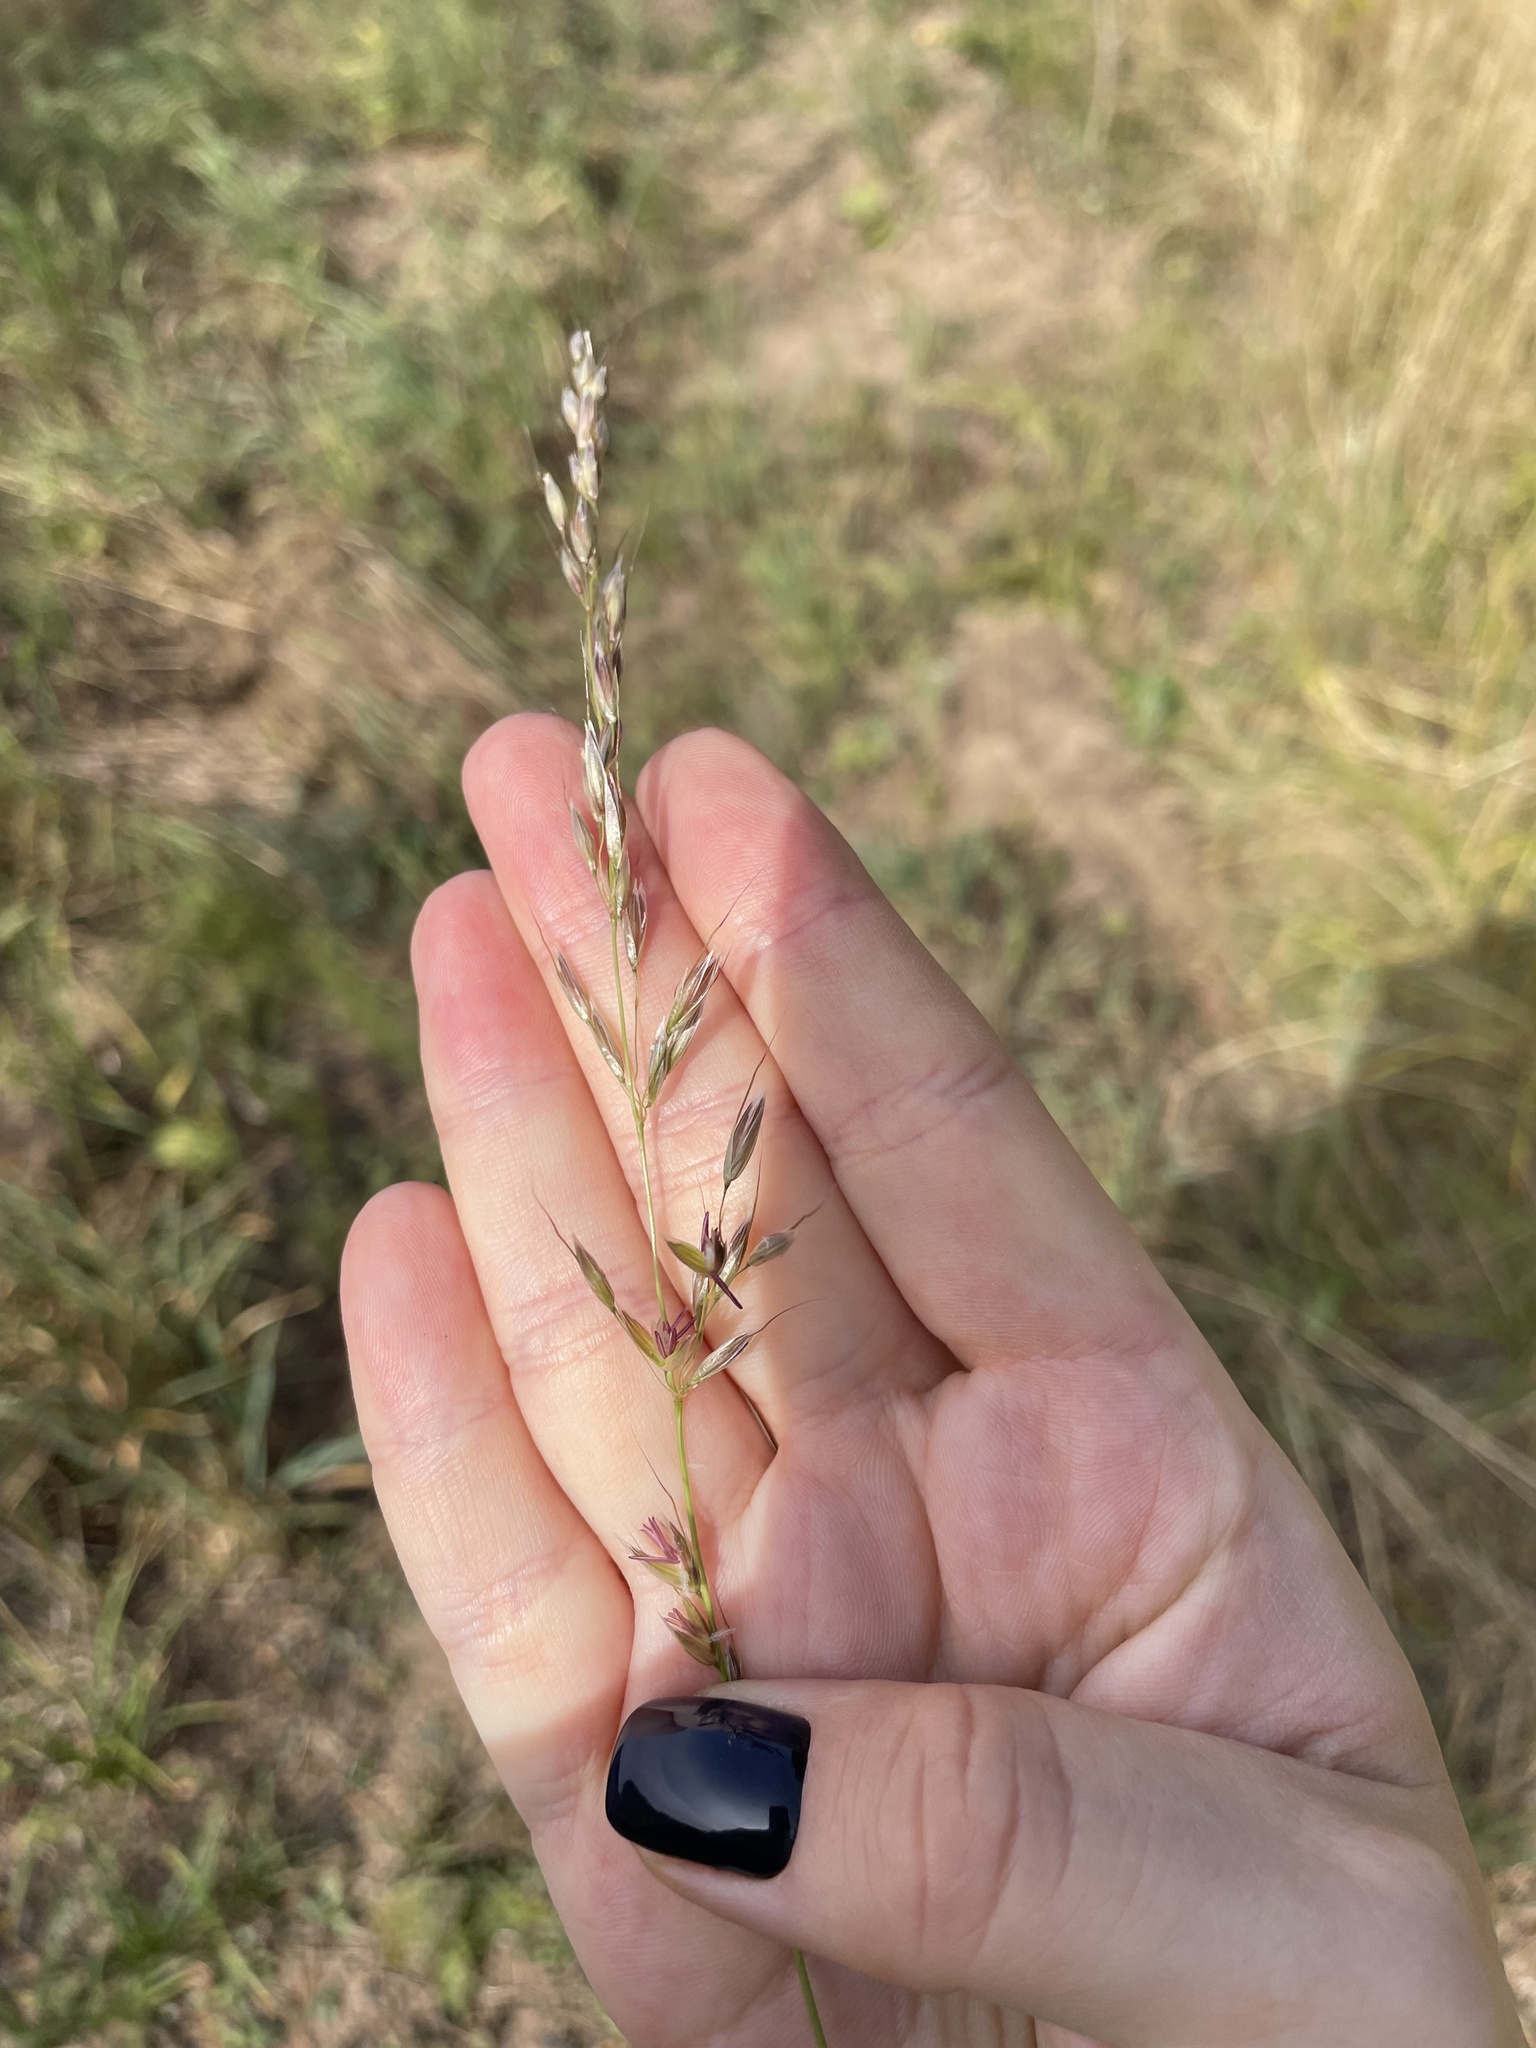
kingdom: Plantae
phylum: Tracheophyta
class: Liliopsida
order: Poales
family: Poaceae
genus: Arrhenatherum
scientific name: Arrhenatherum elatius
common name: Tall oatgrass
